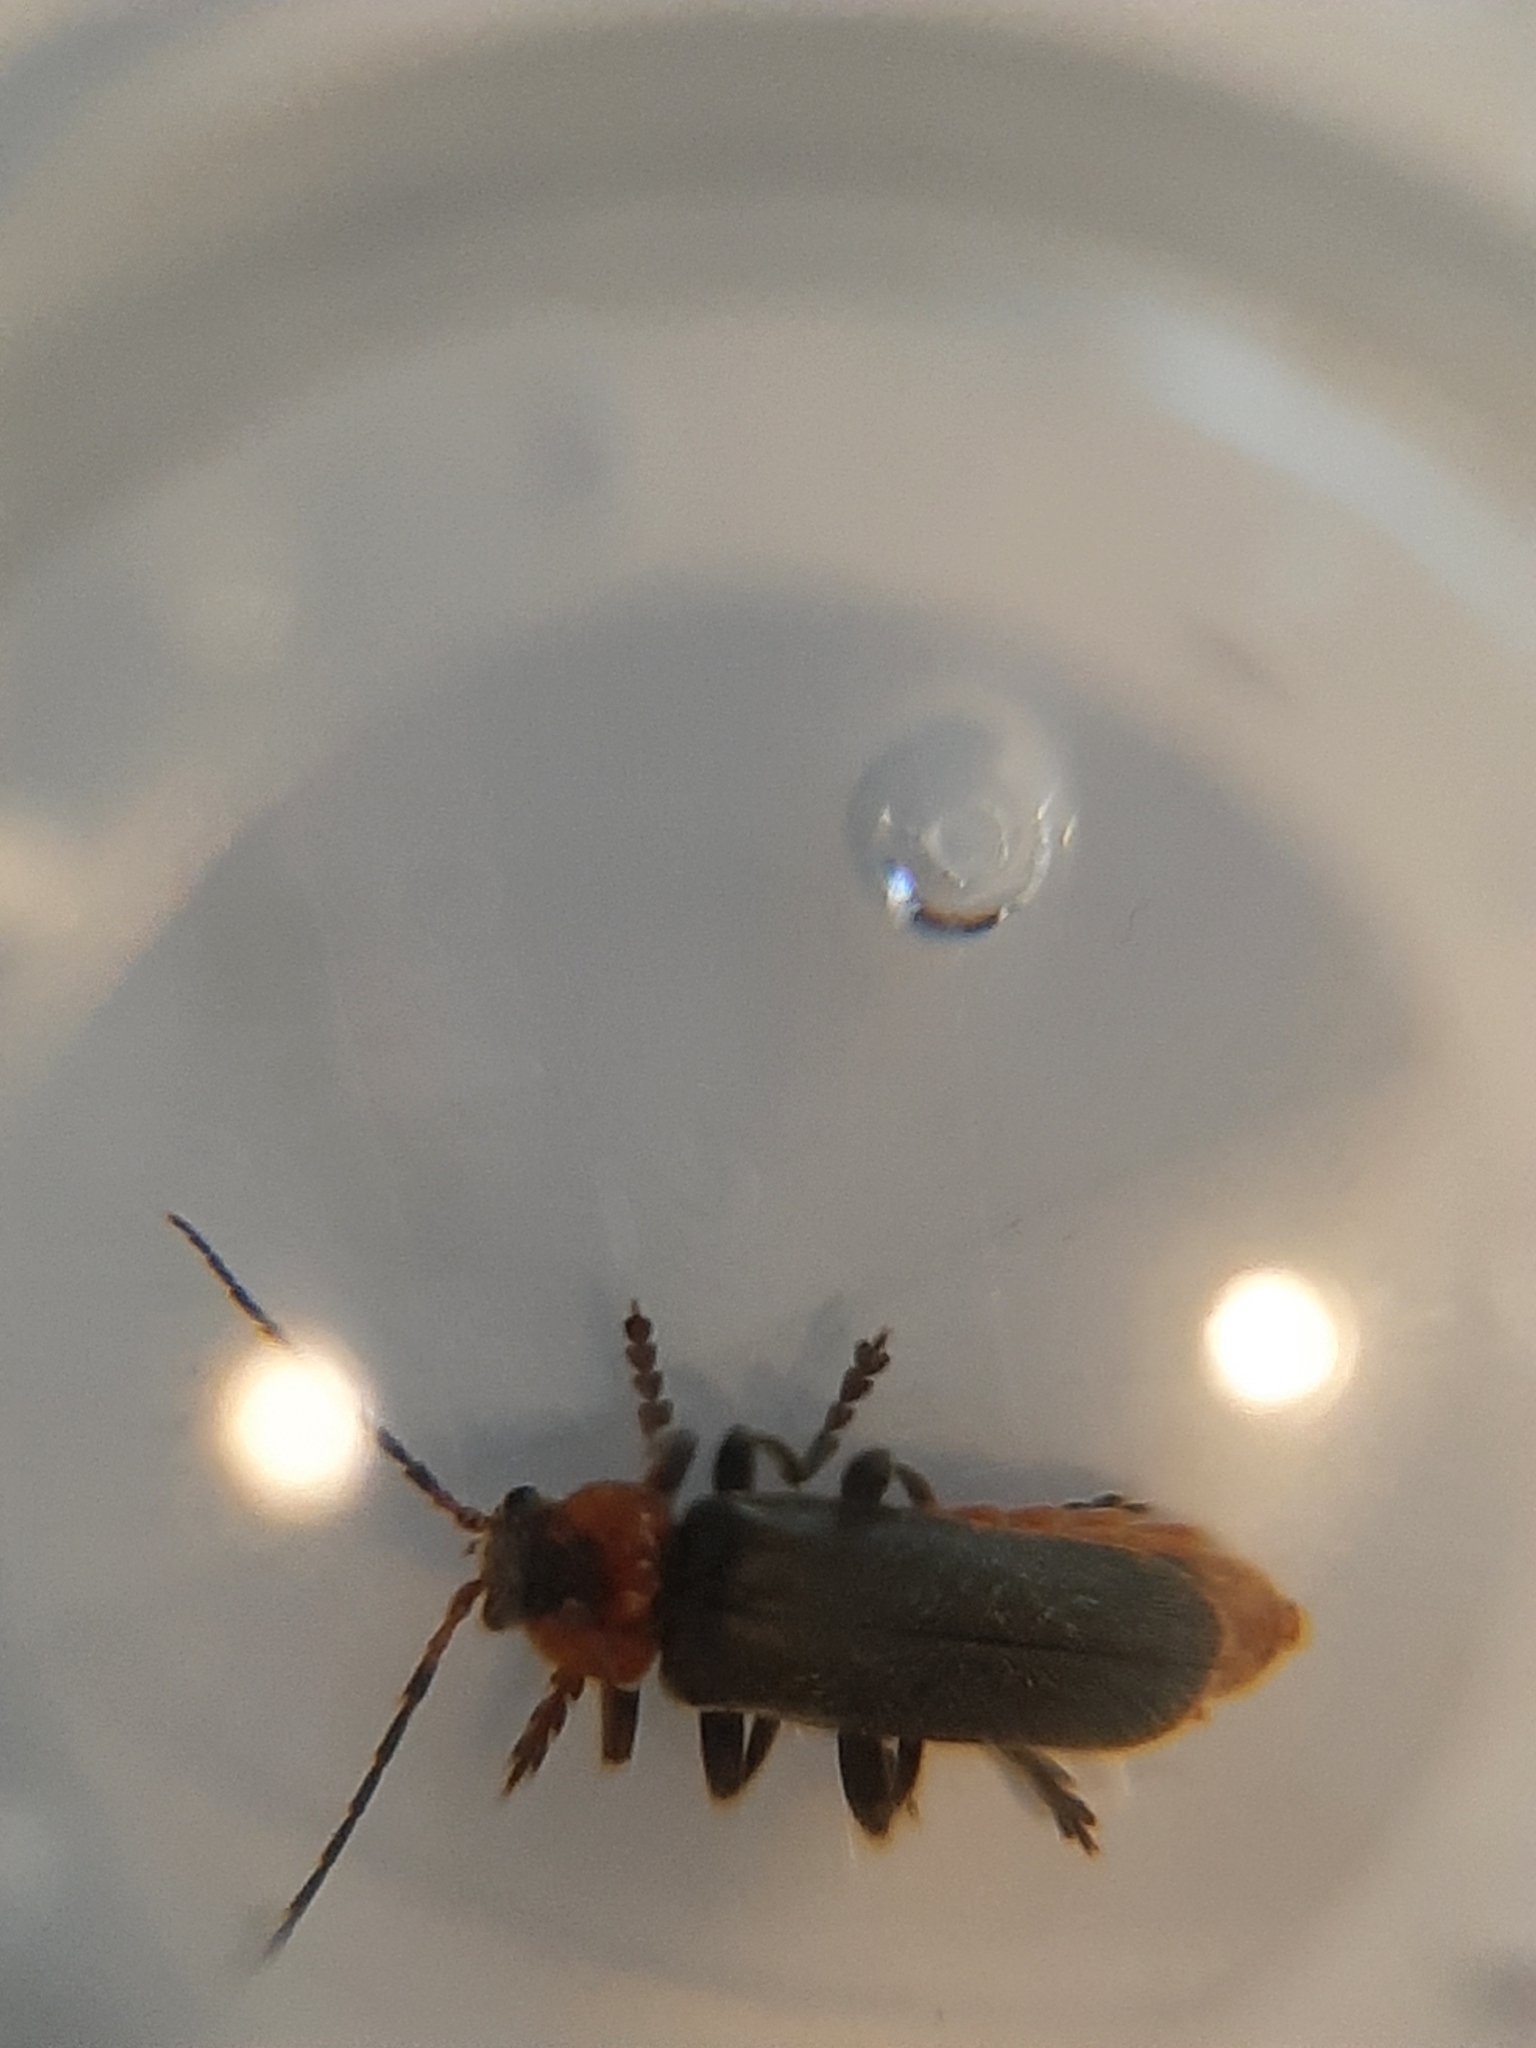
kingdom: Animalia
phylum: Arthropoda
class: Insecta
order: Coleoptera
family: Cantharidae
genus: Cantharis
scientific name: Cantharis fusca
